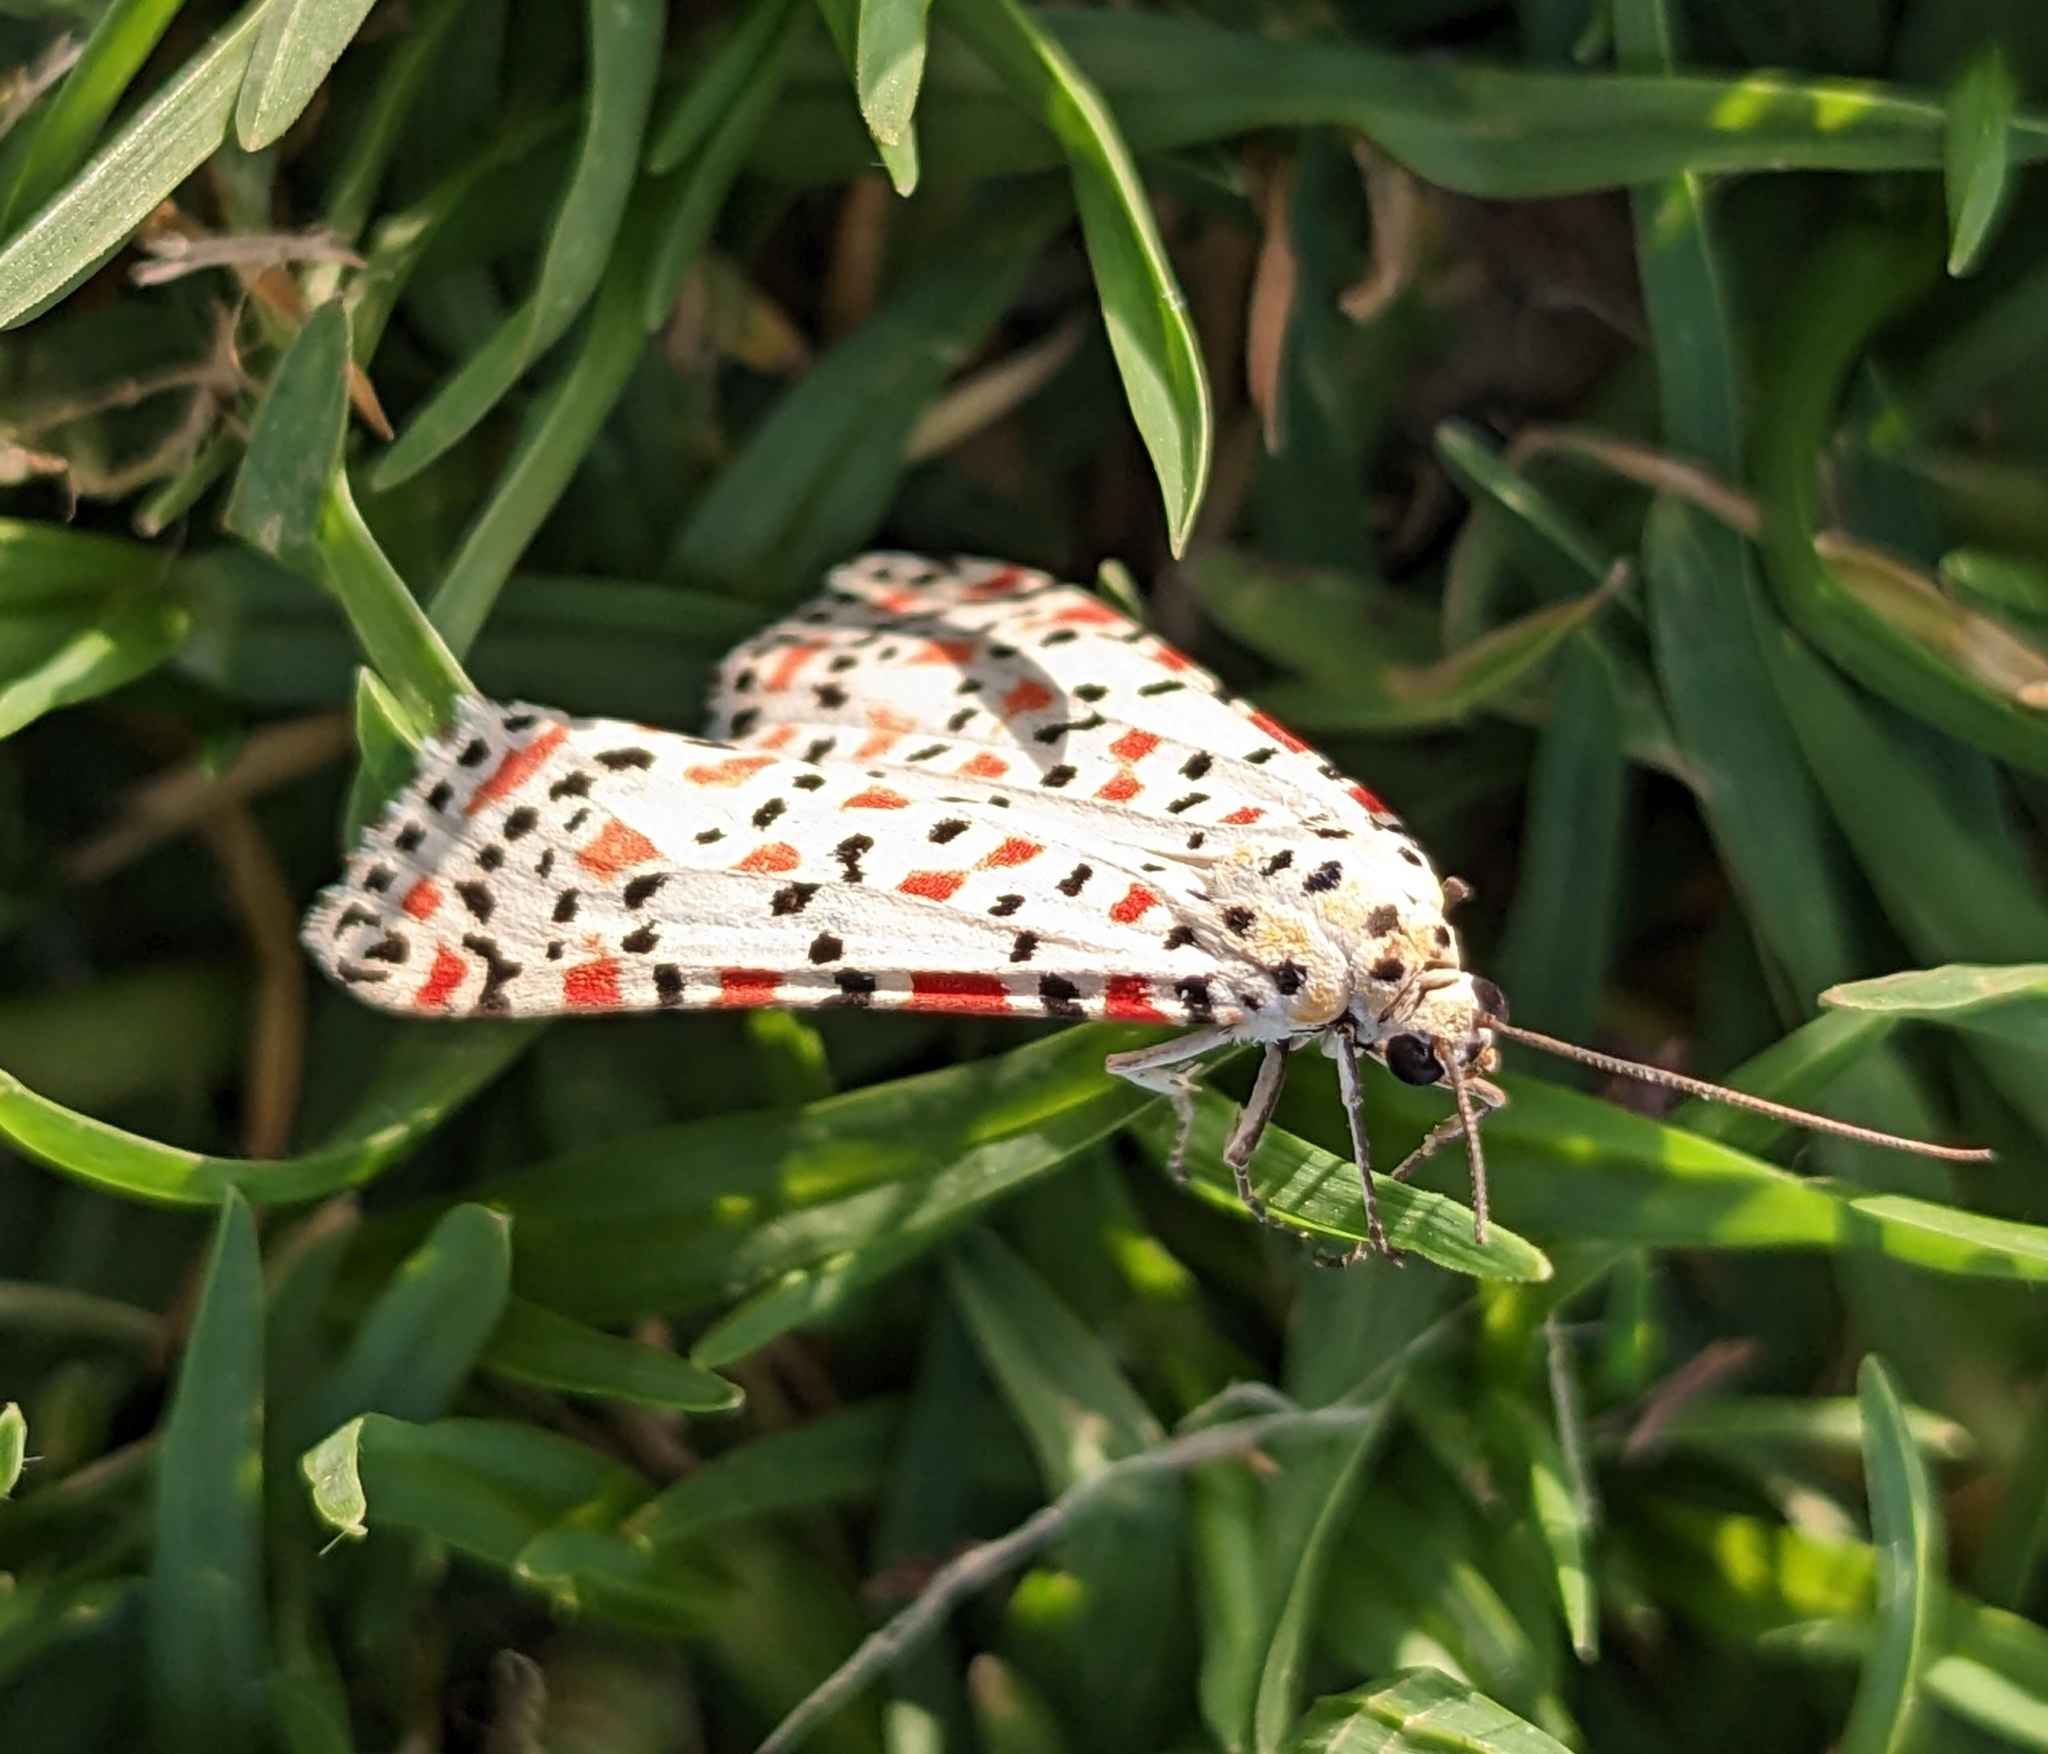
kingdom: Animalia
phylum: Arthropoda
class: Insecta
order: Lepidoptera
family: Erebidae
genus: Utetheisa
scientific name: Utetheisa pulchella
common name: Crimson speckled
